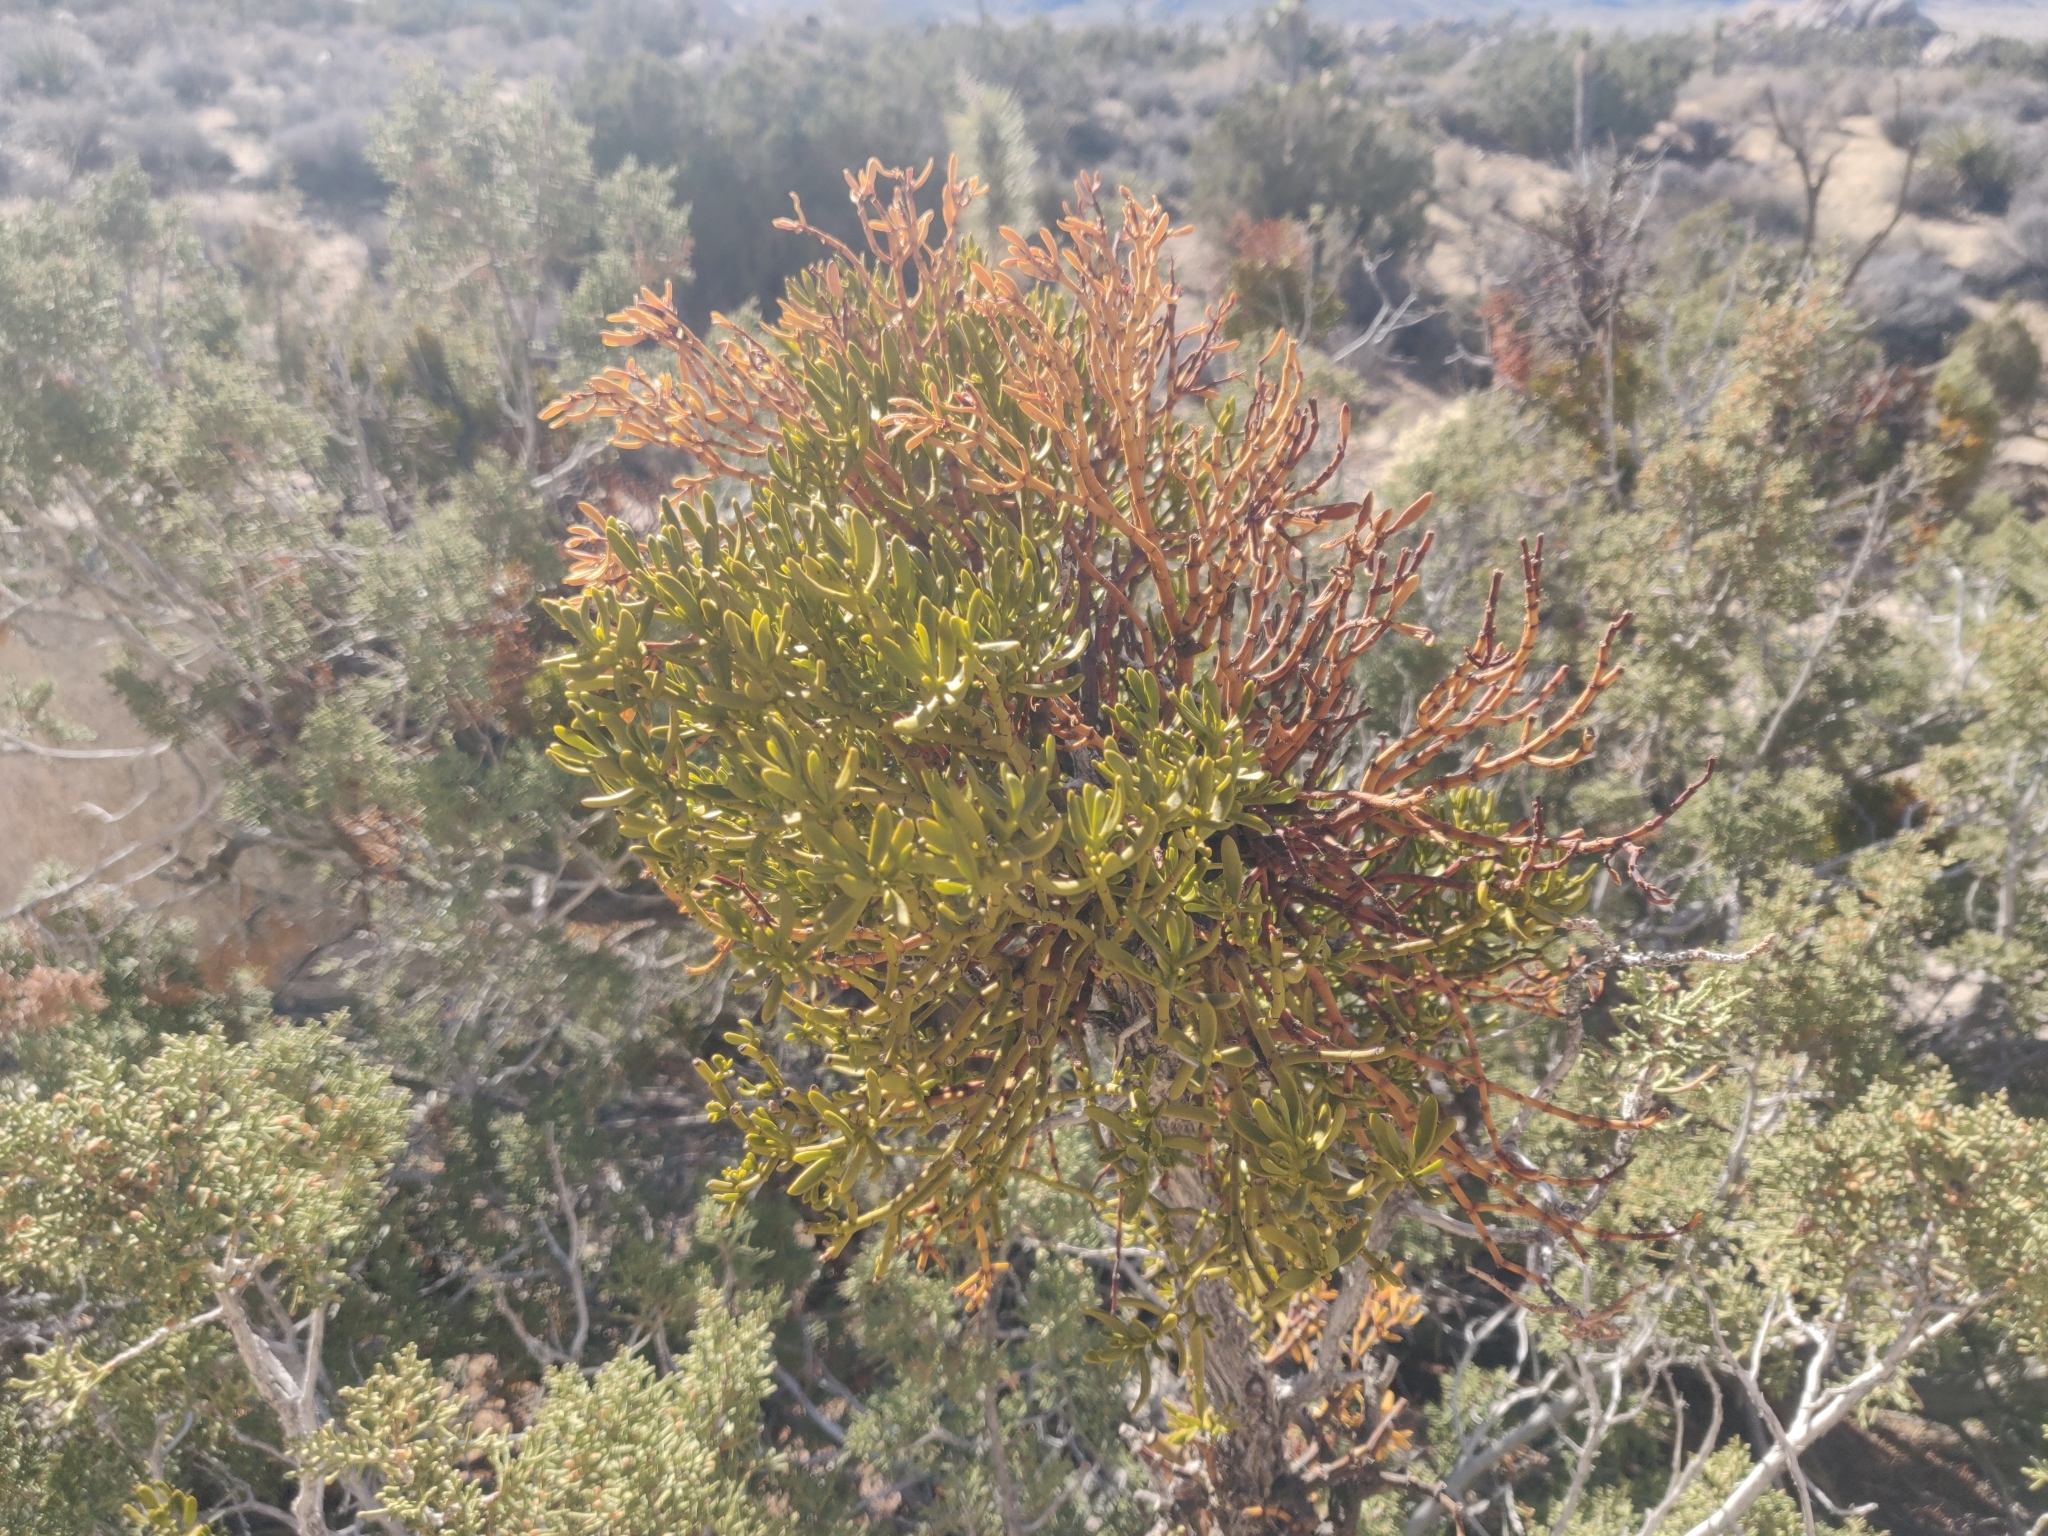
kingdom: Plantae
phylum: Tracheophyta
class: Magnoliopsida
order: Santalales
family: Viscaceae
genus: Phoradendron
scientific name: Phoradendron bolleanum
